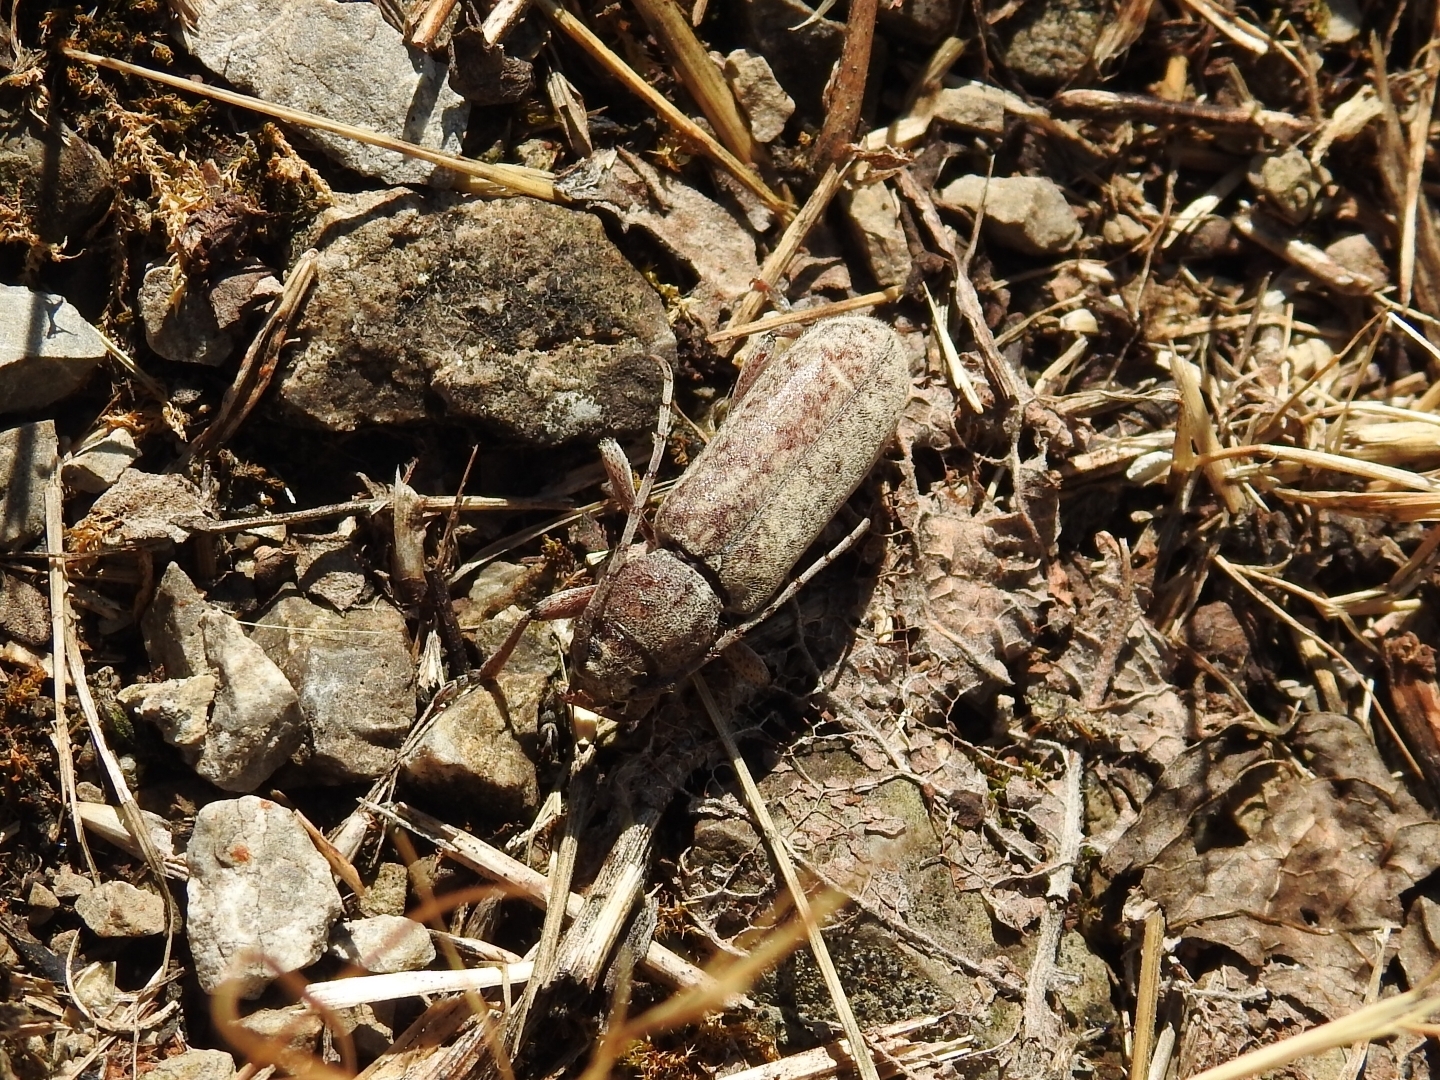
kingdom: Animalia
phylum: Arthropoda
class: Insecta
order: Coleoptera
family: Cerambycidae
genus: Trichoferus
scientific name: Trichoferus griseus
